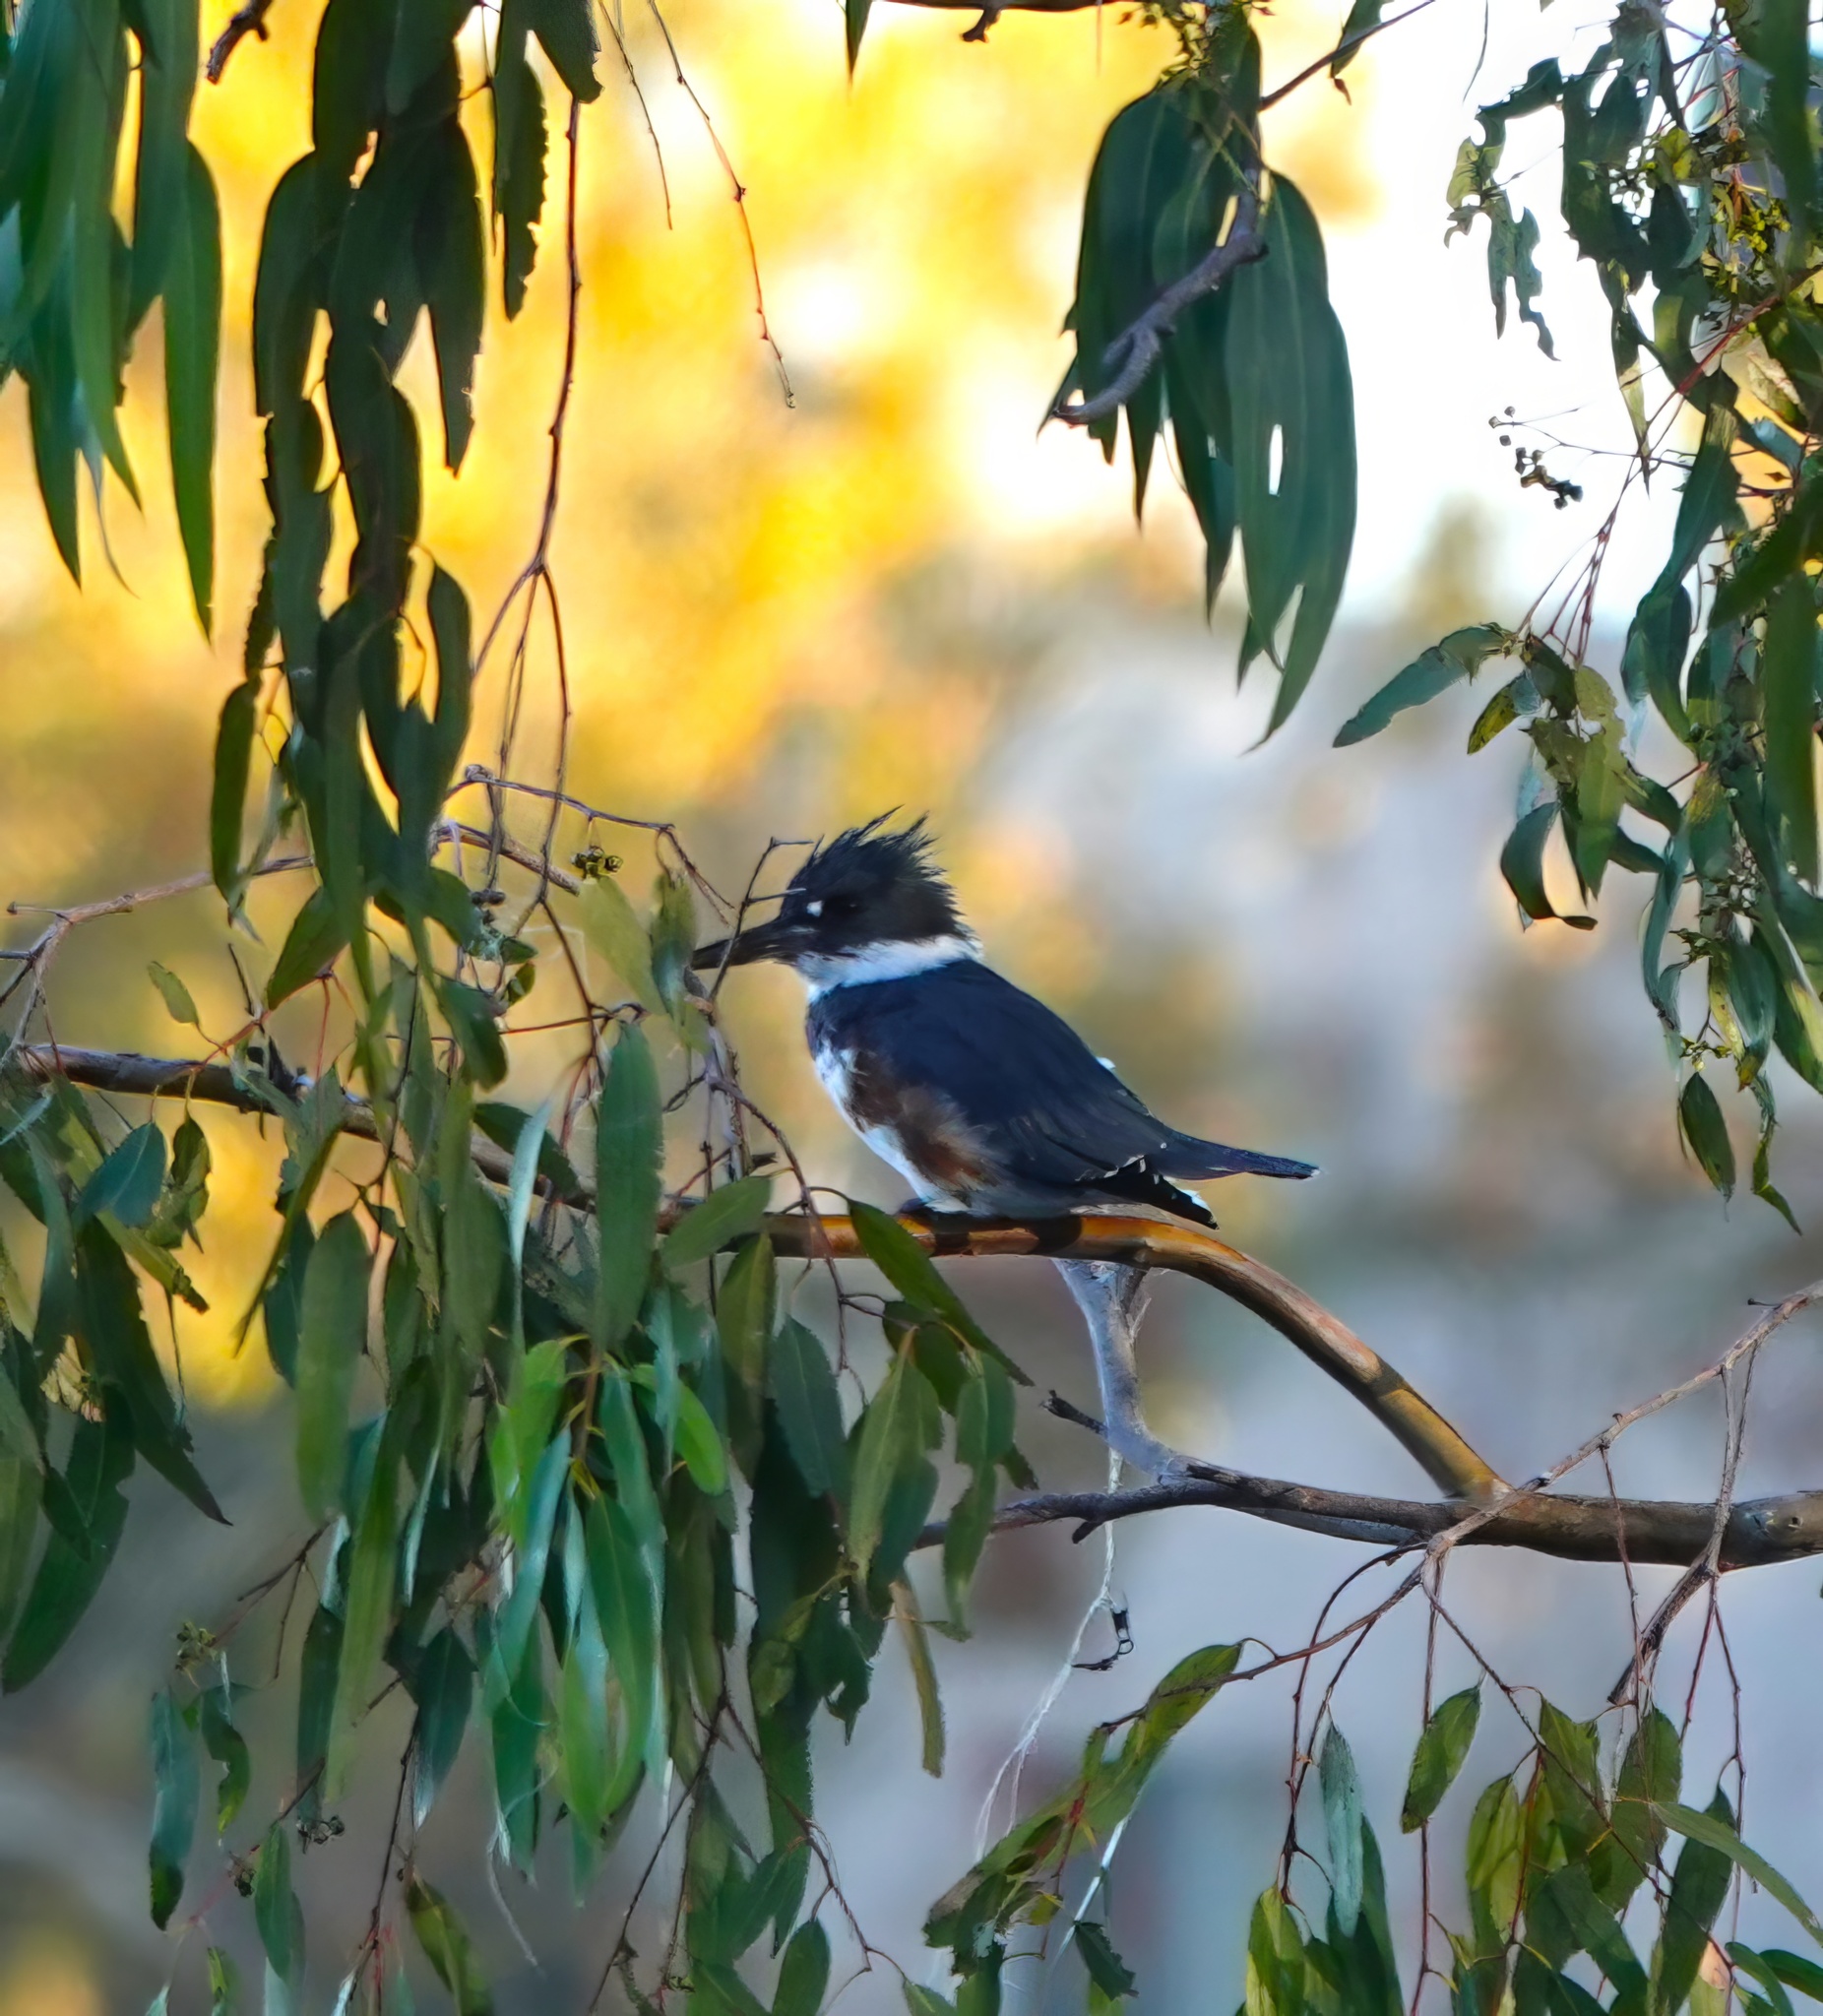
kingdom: Animalia
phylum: Chordata
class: Aves
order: Coraciiformes
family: Alcedinidae
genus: Megaceryle
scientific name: Megaceryle alcyon
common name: Belted kingfisher
